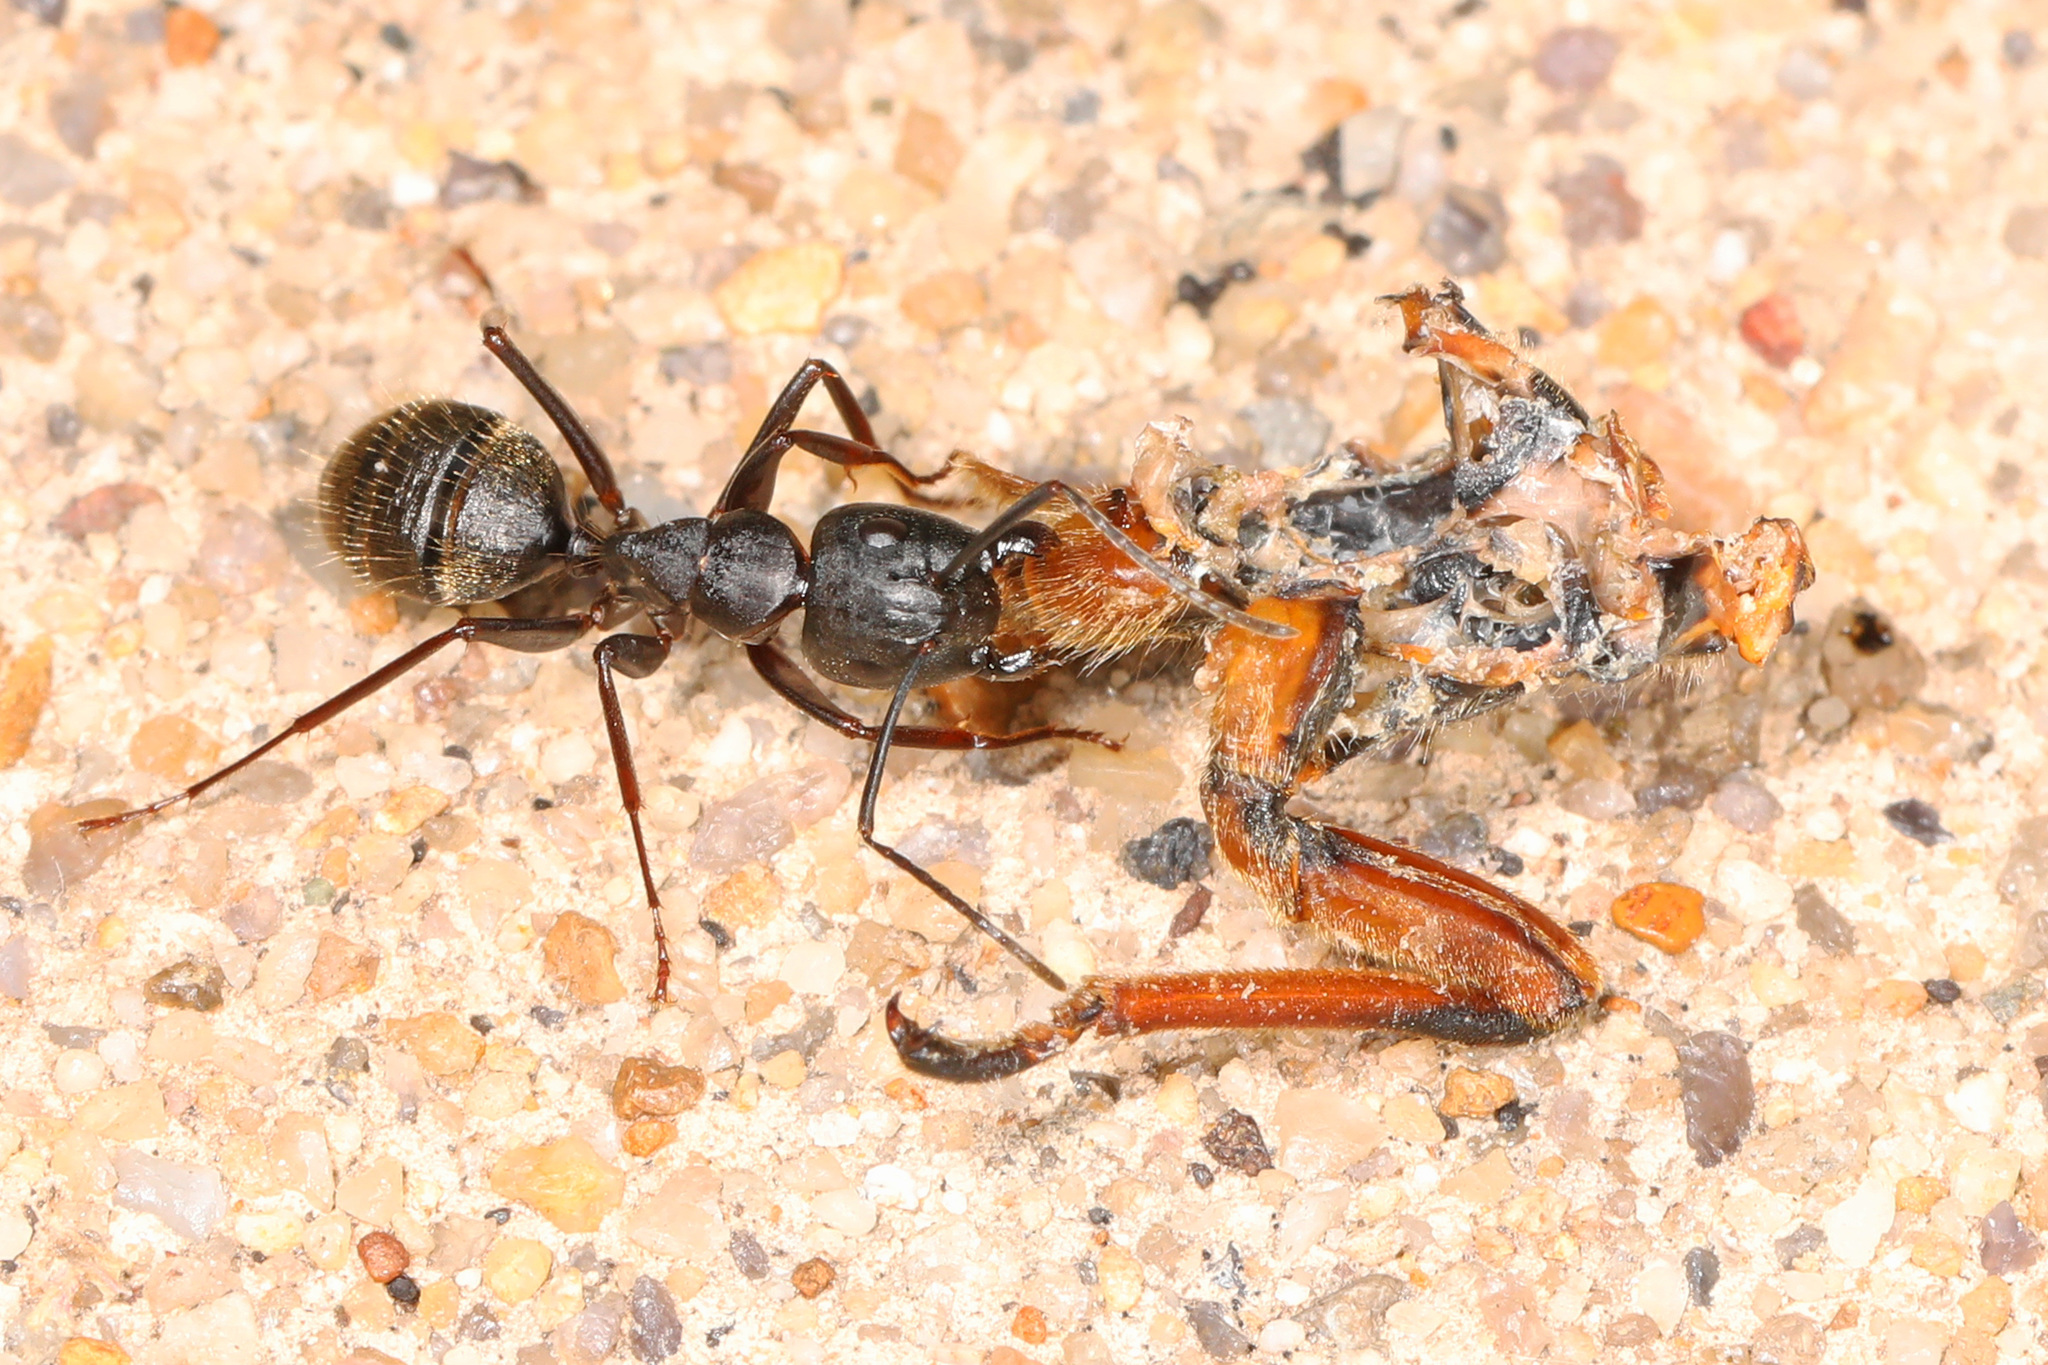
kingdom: Animalia
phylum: Arthropoda
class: Insecta
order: Hymenoptera
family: Formicidae
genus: Camponotus
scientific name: Camponotus pennsylvanicus
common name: Black carpenter ant
